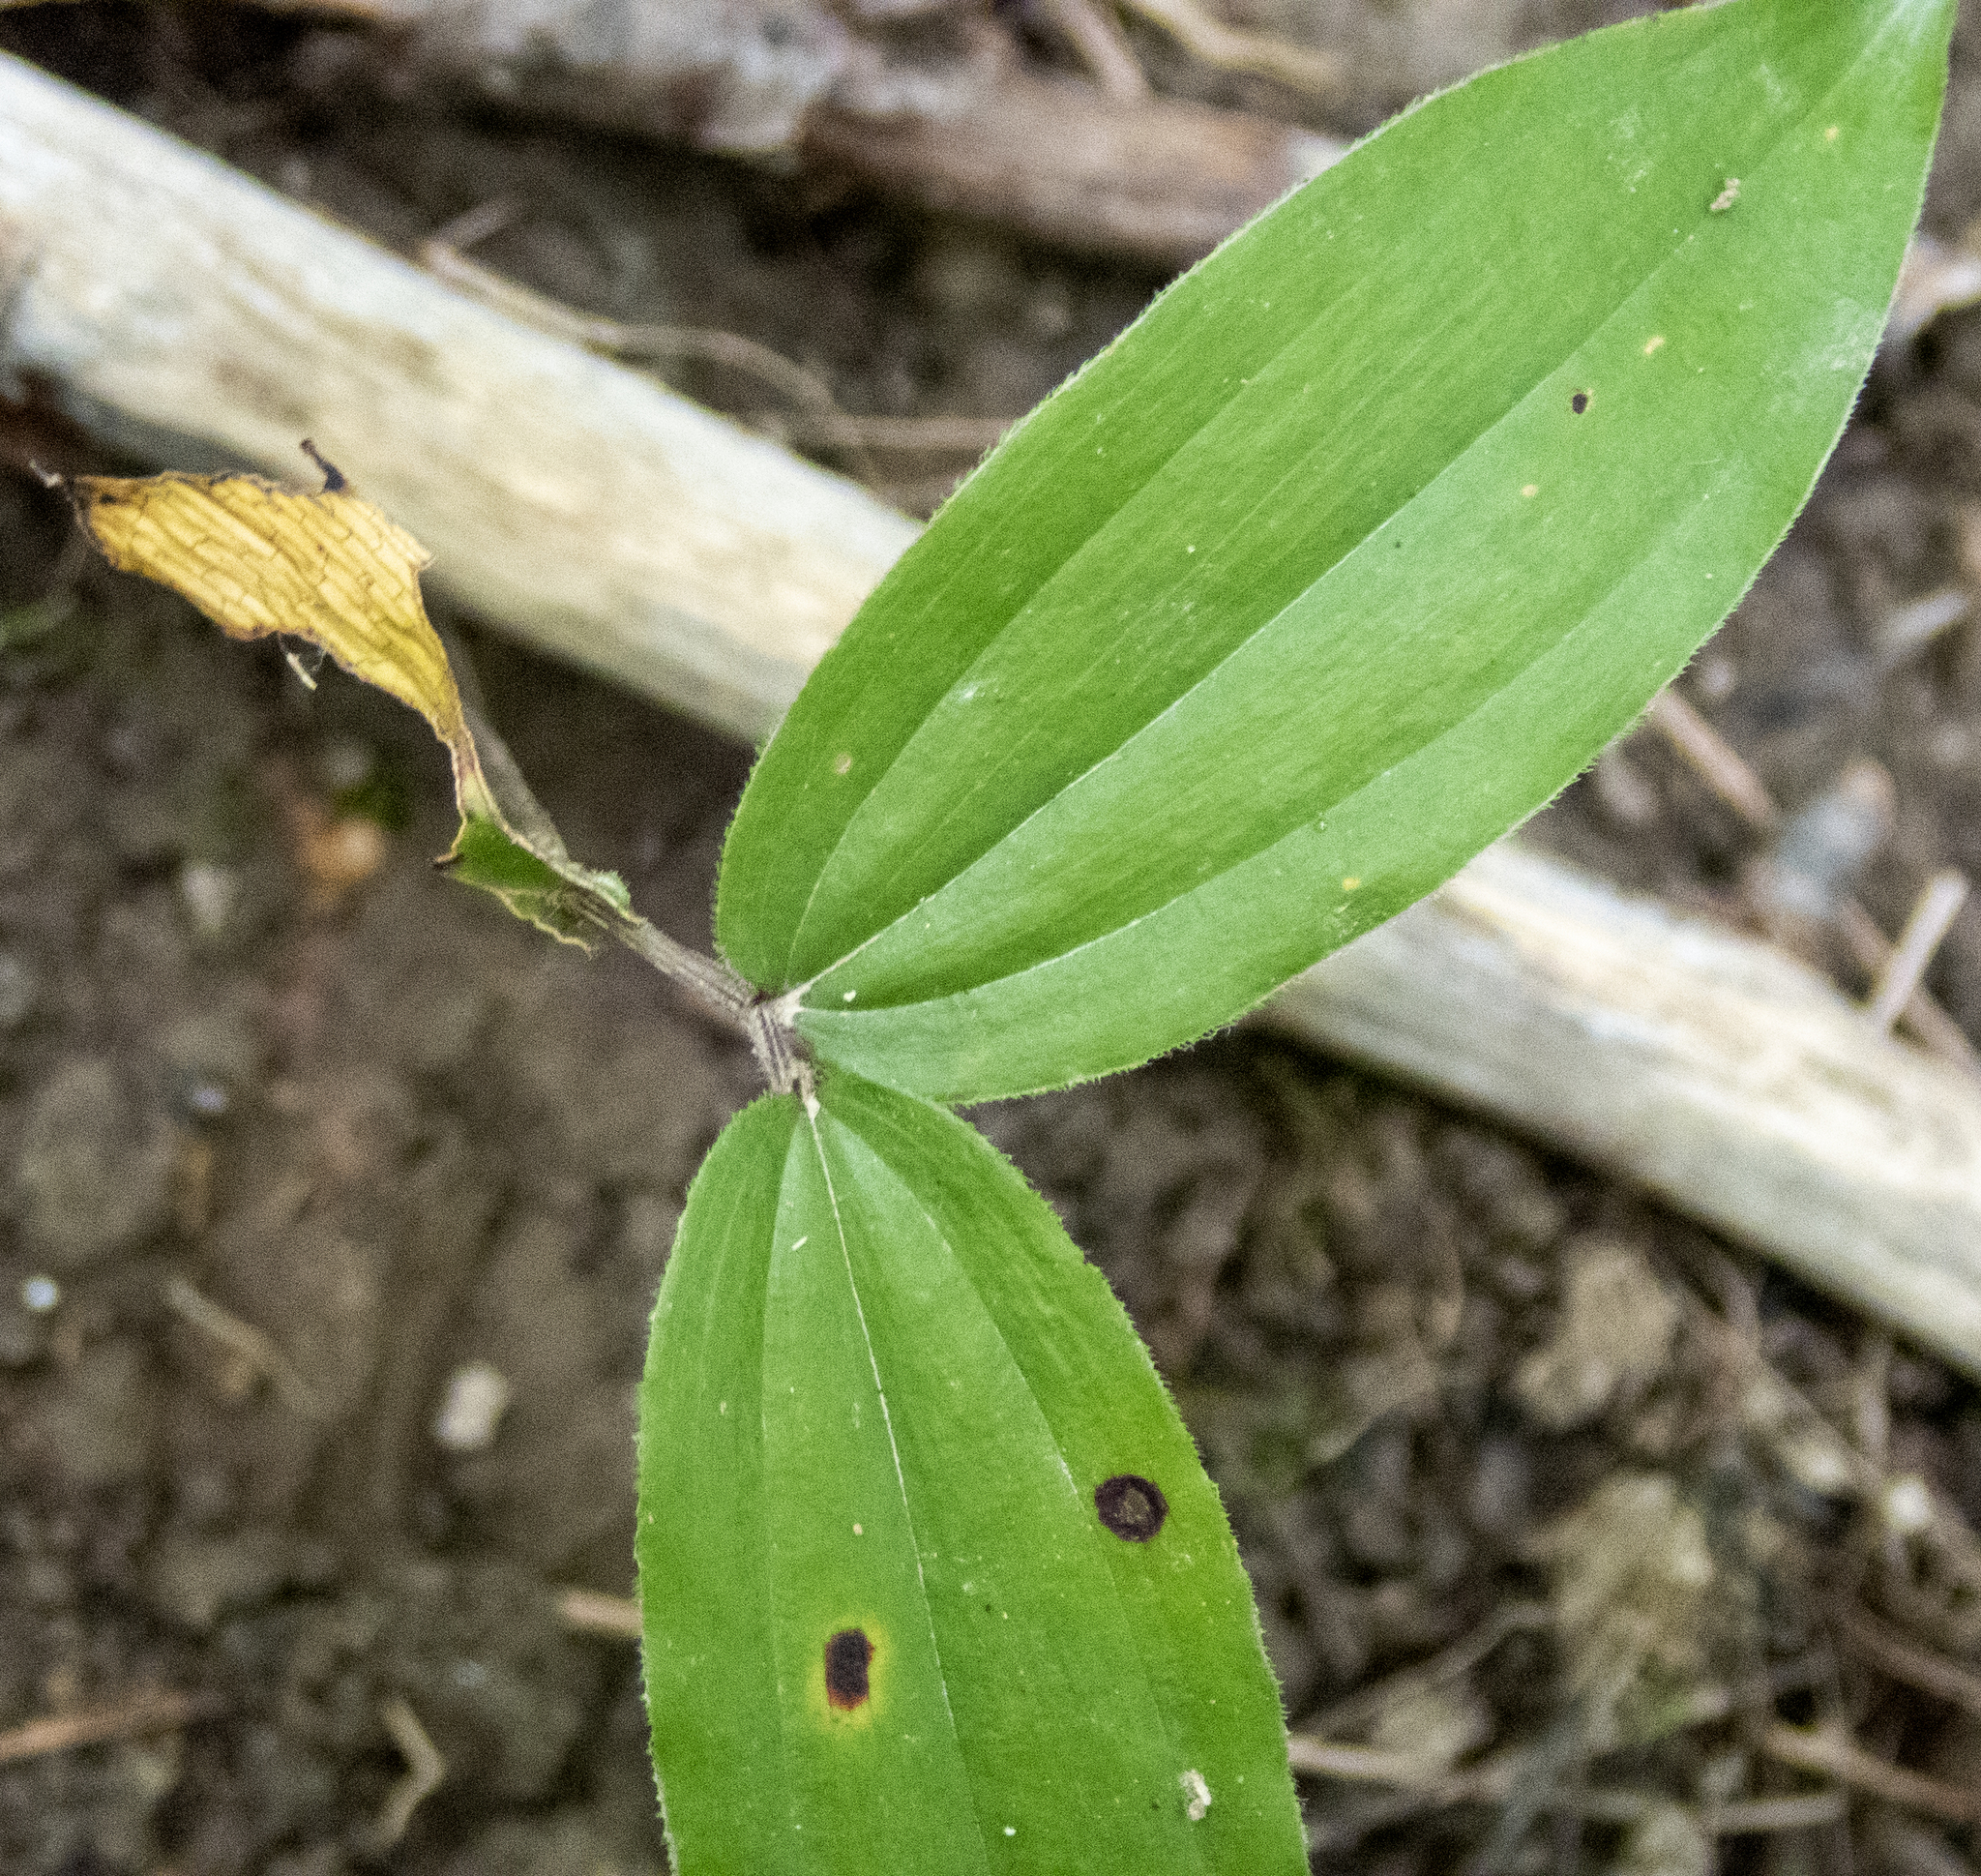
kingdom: Plantae
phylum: Tracheophyta
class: Liliopsida
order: Asparagales
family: Asparagaceae
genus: Maianthemum
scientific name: Maianthemum racemosum
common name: False spikenard
